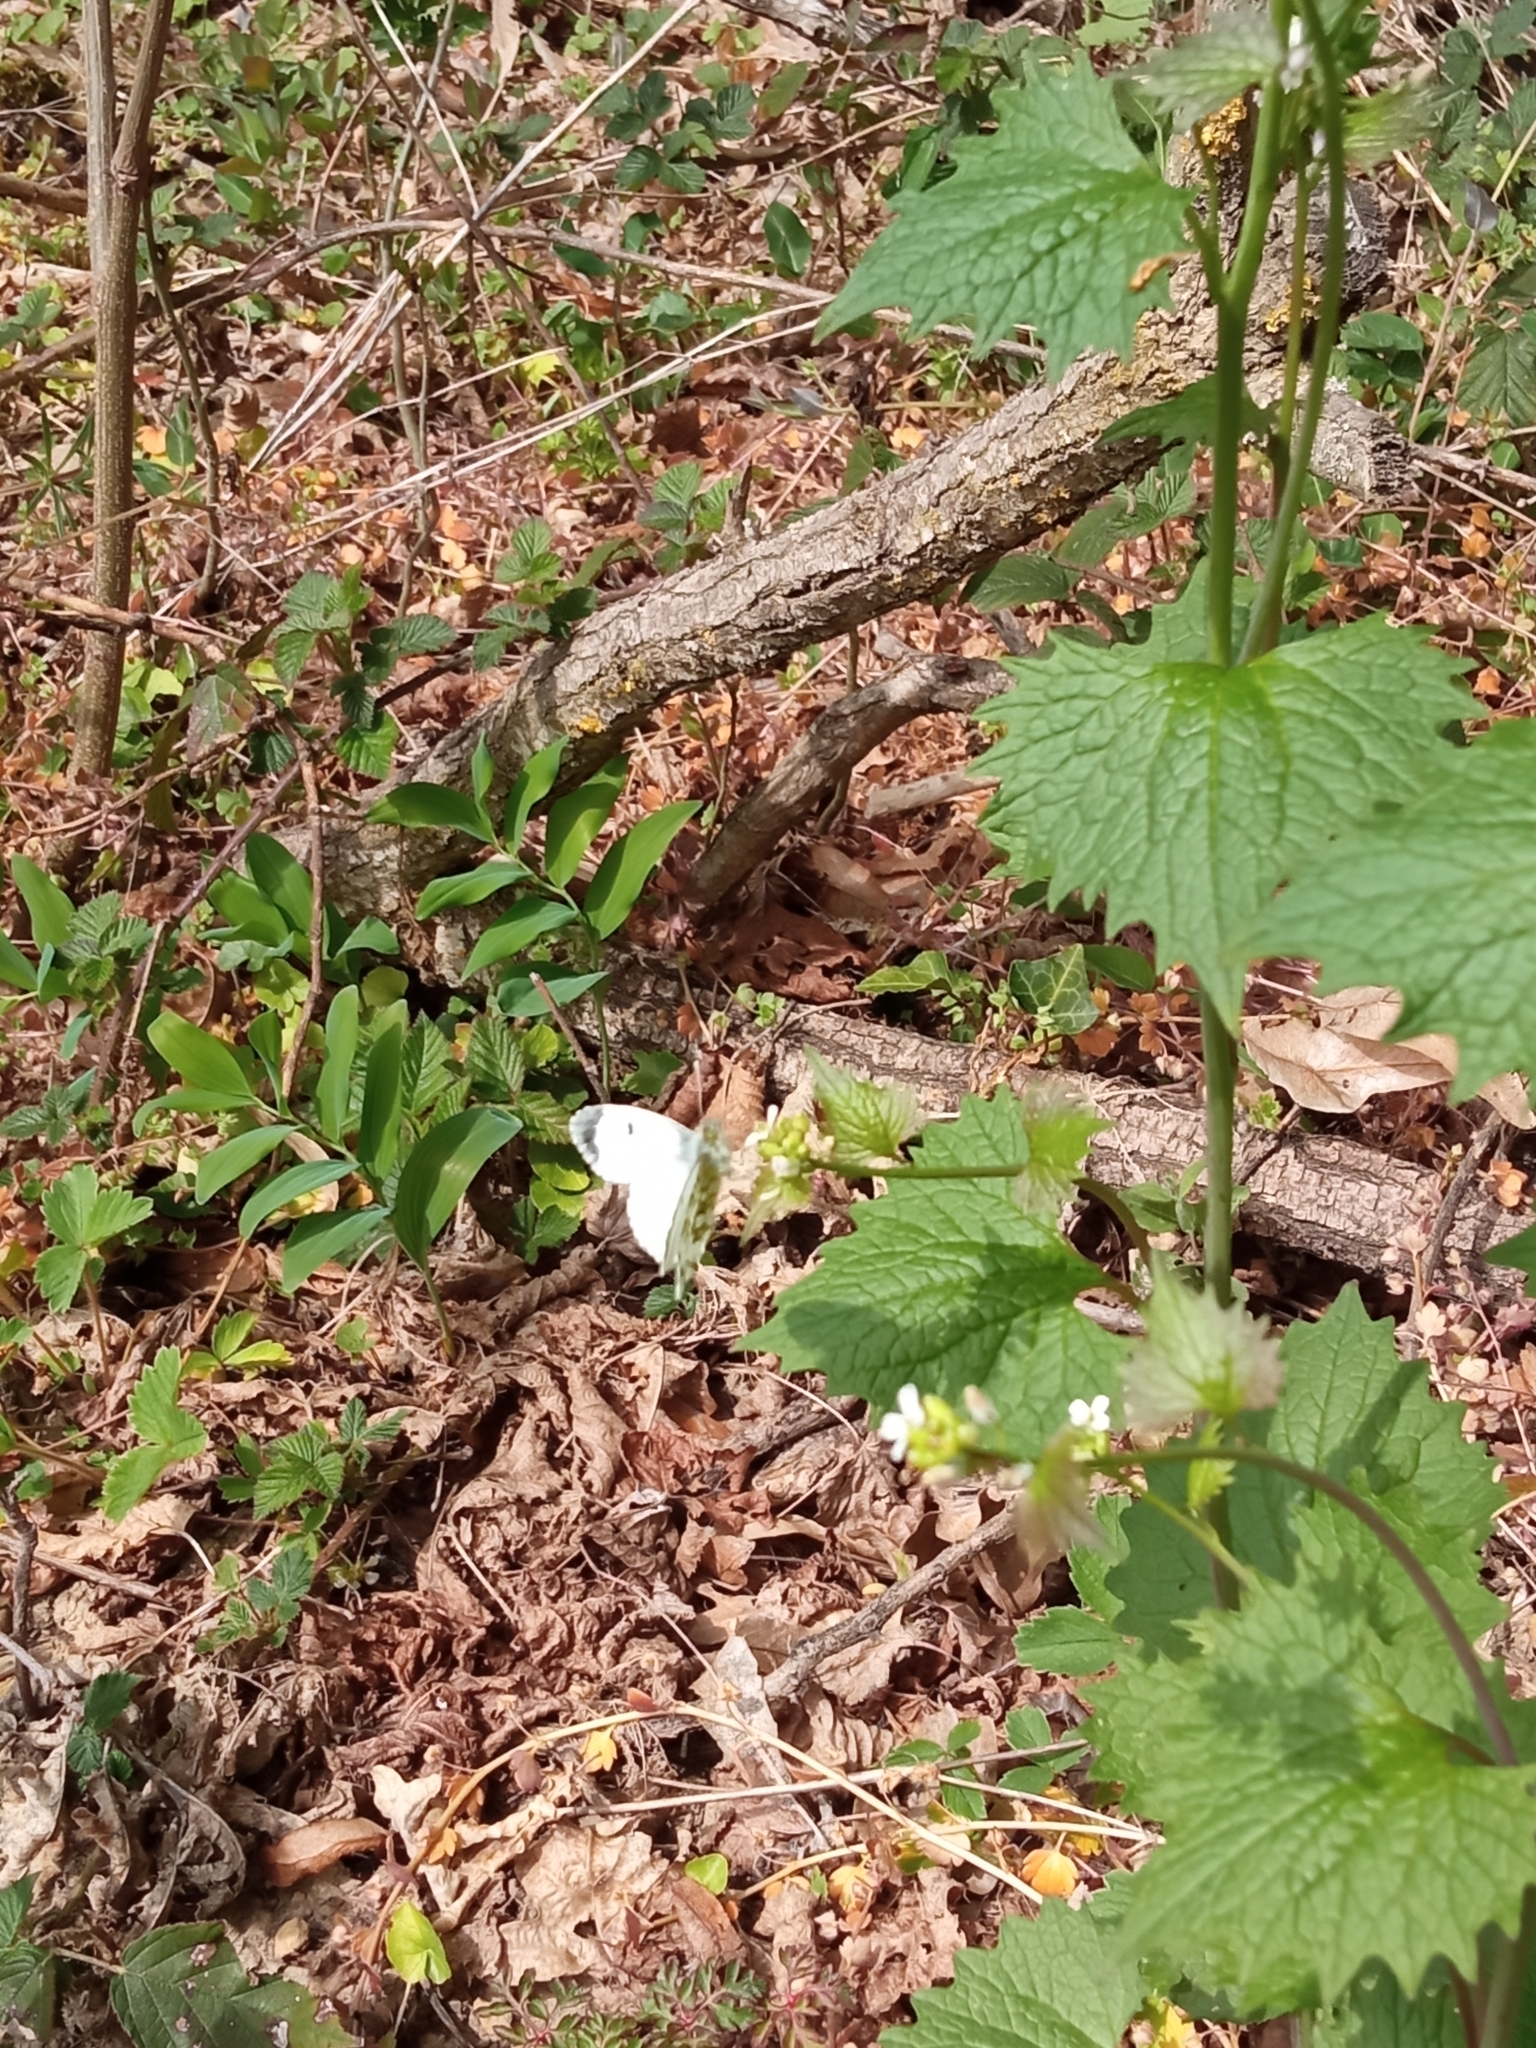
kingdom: Animalia
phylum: Arthropoda
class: Insecta
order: Lepidoptera
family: Pieridae
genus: Anthocharis
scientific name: Anthocharis cardamines
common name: Orange-tip
